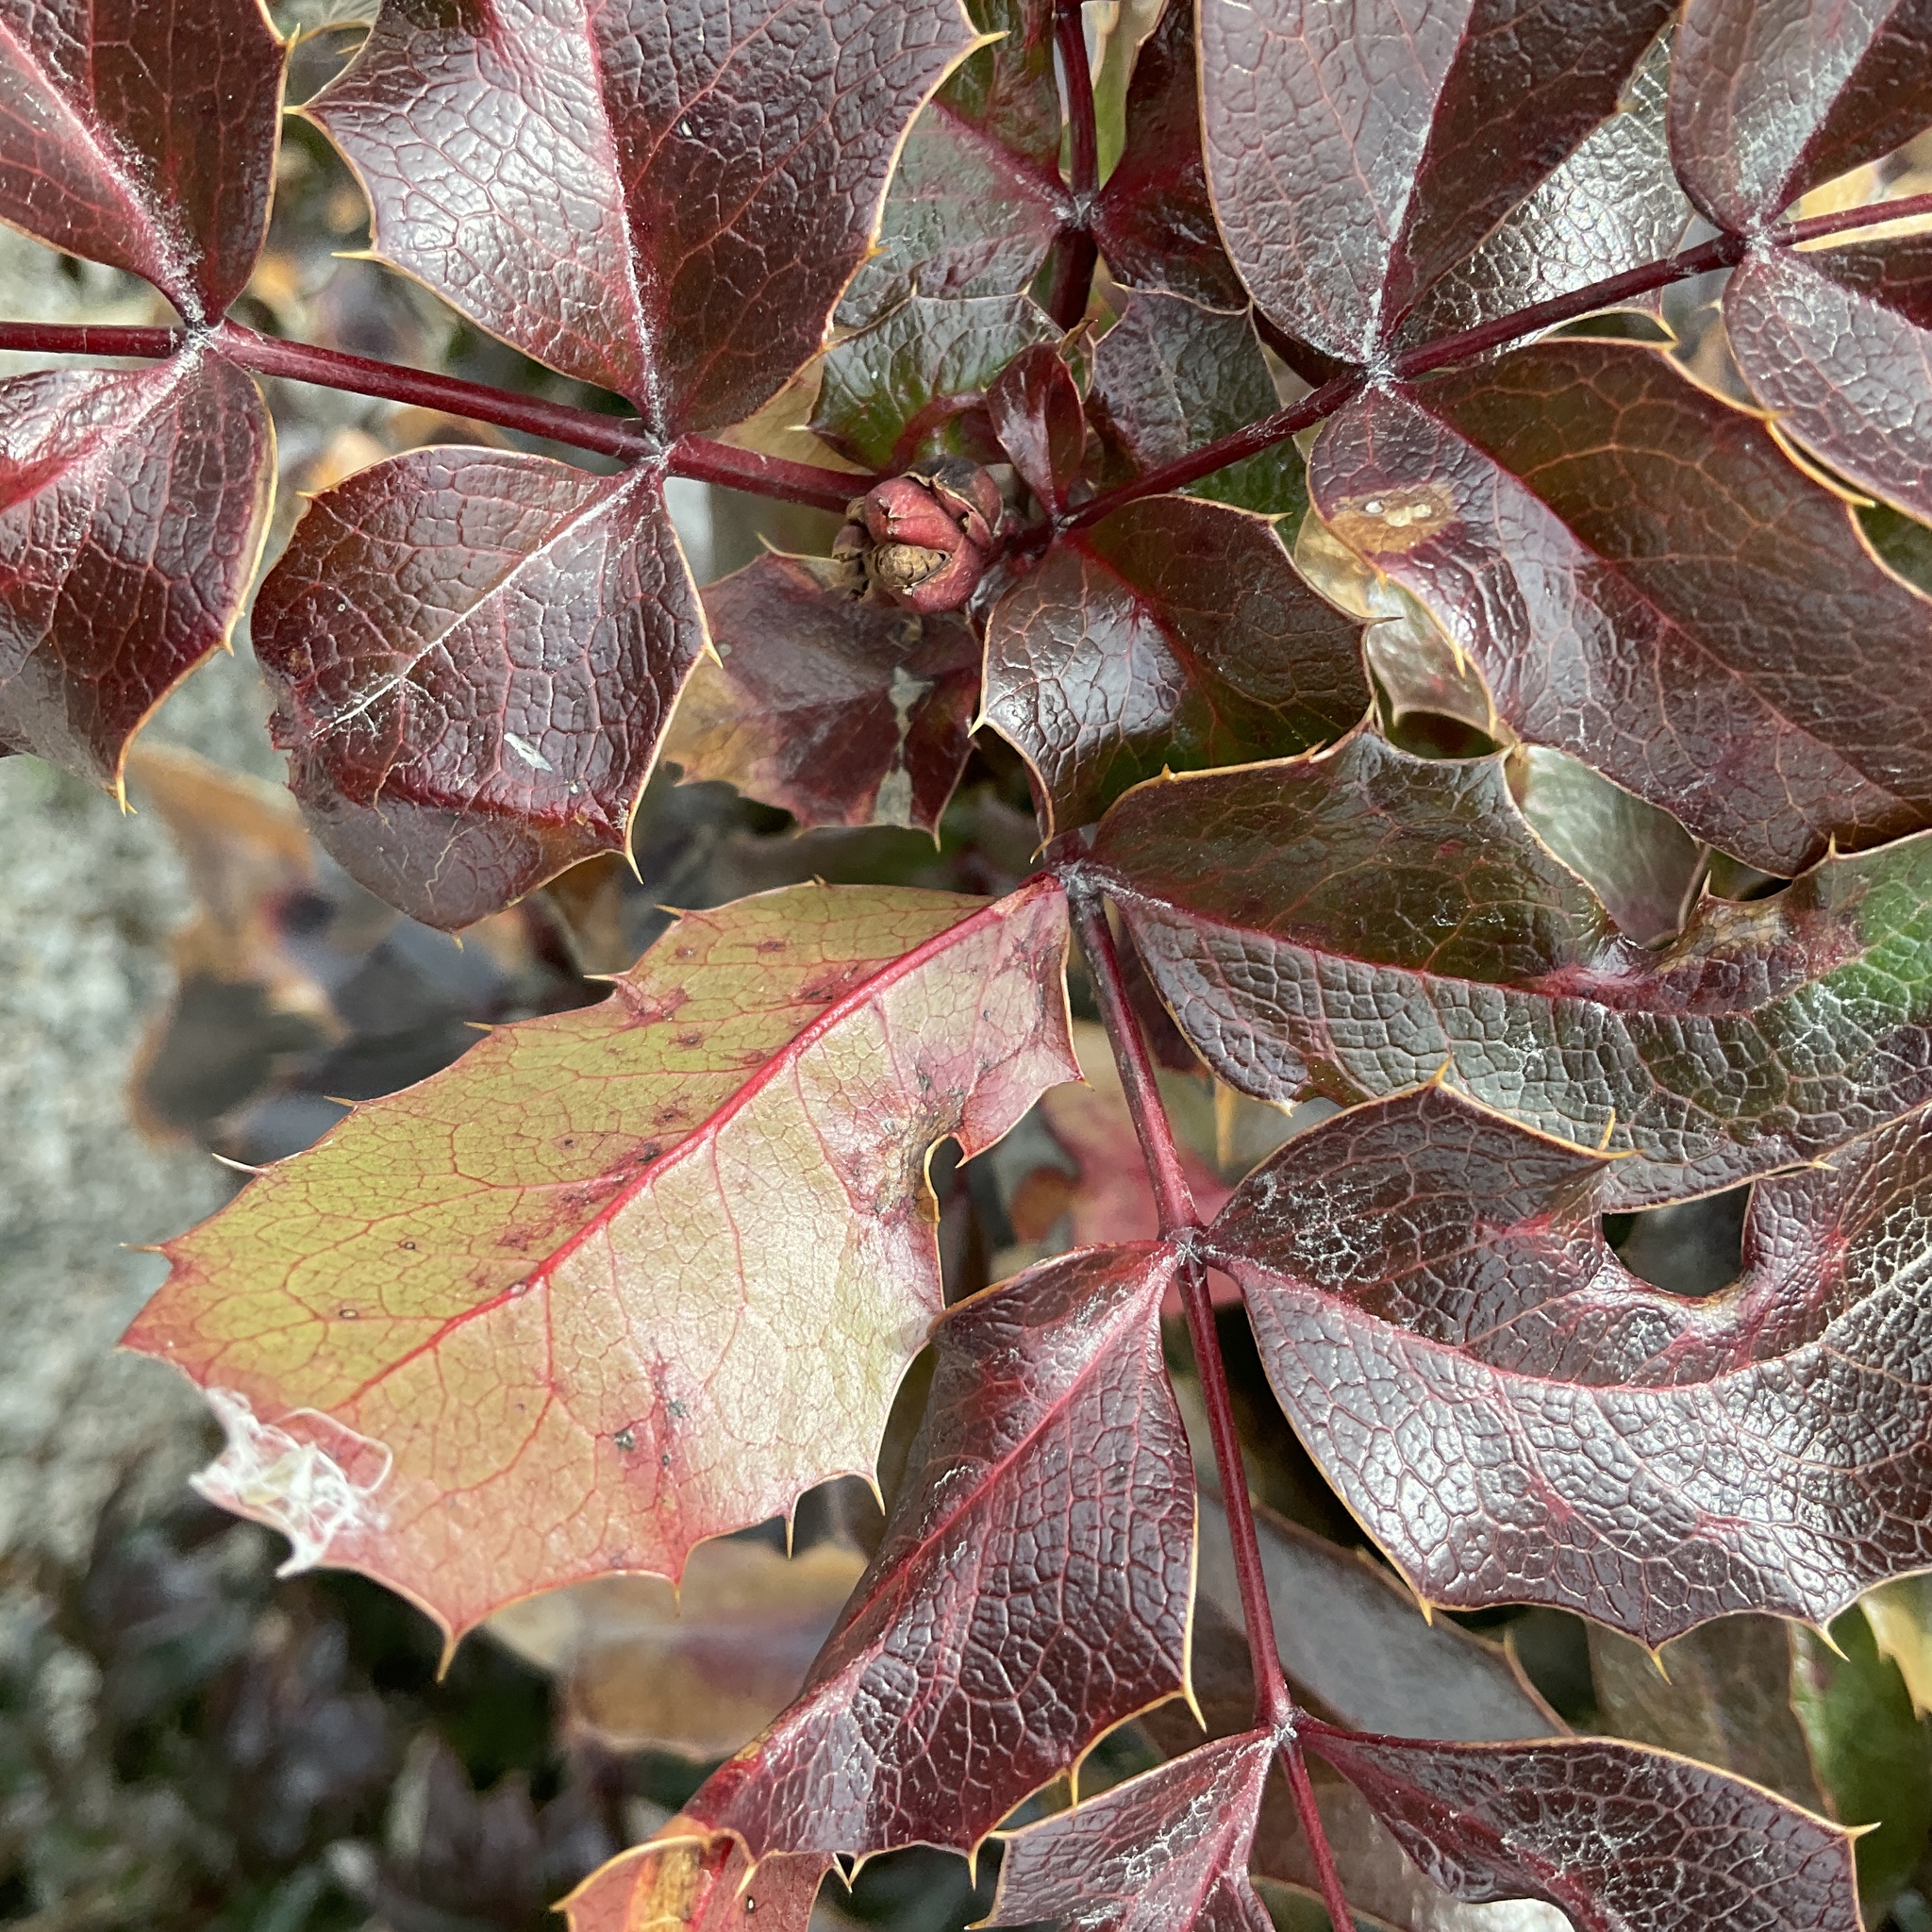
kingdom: Plantae
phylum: Tracheophyta
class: Magnoliopsida
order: Ranunculales
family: Berberidaceae
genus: Mahonia
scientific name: Mahonia aquifolium
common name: Oregon-grape
